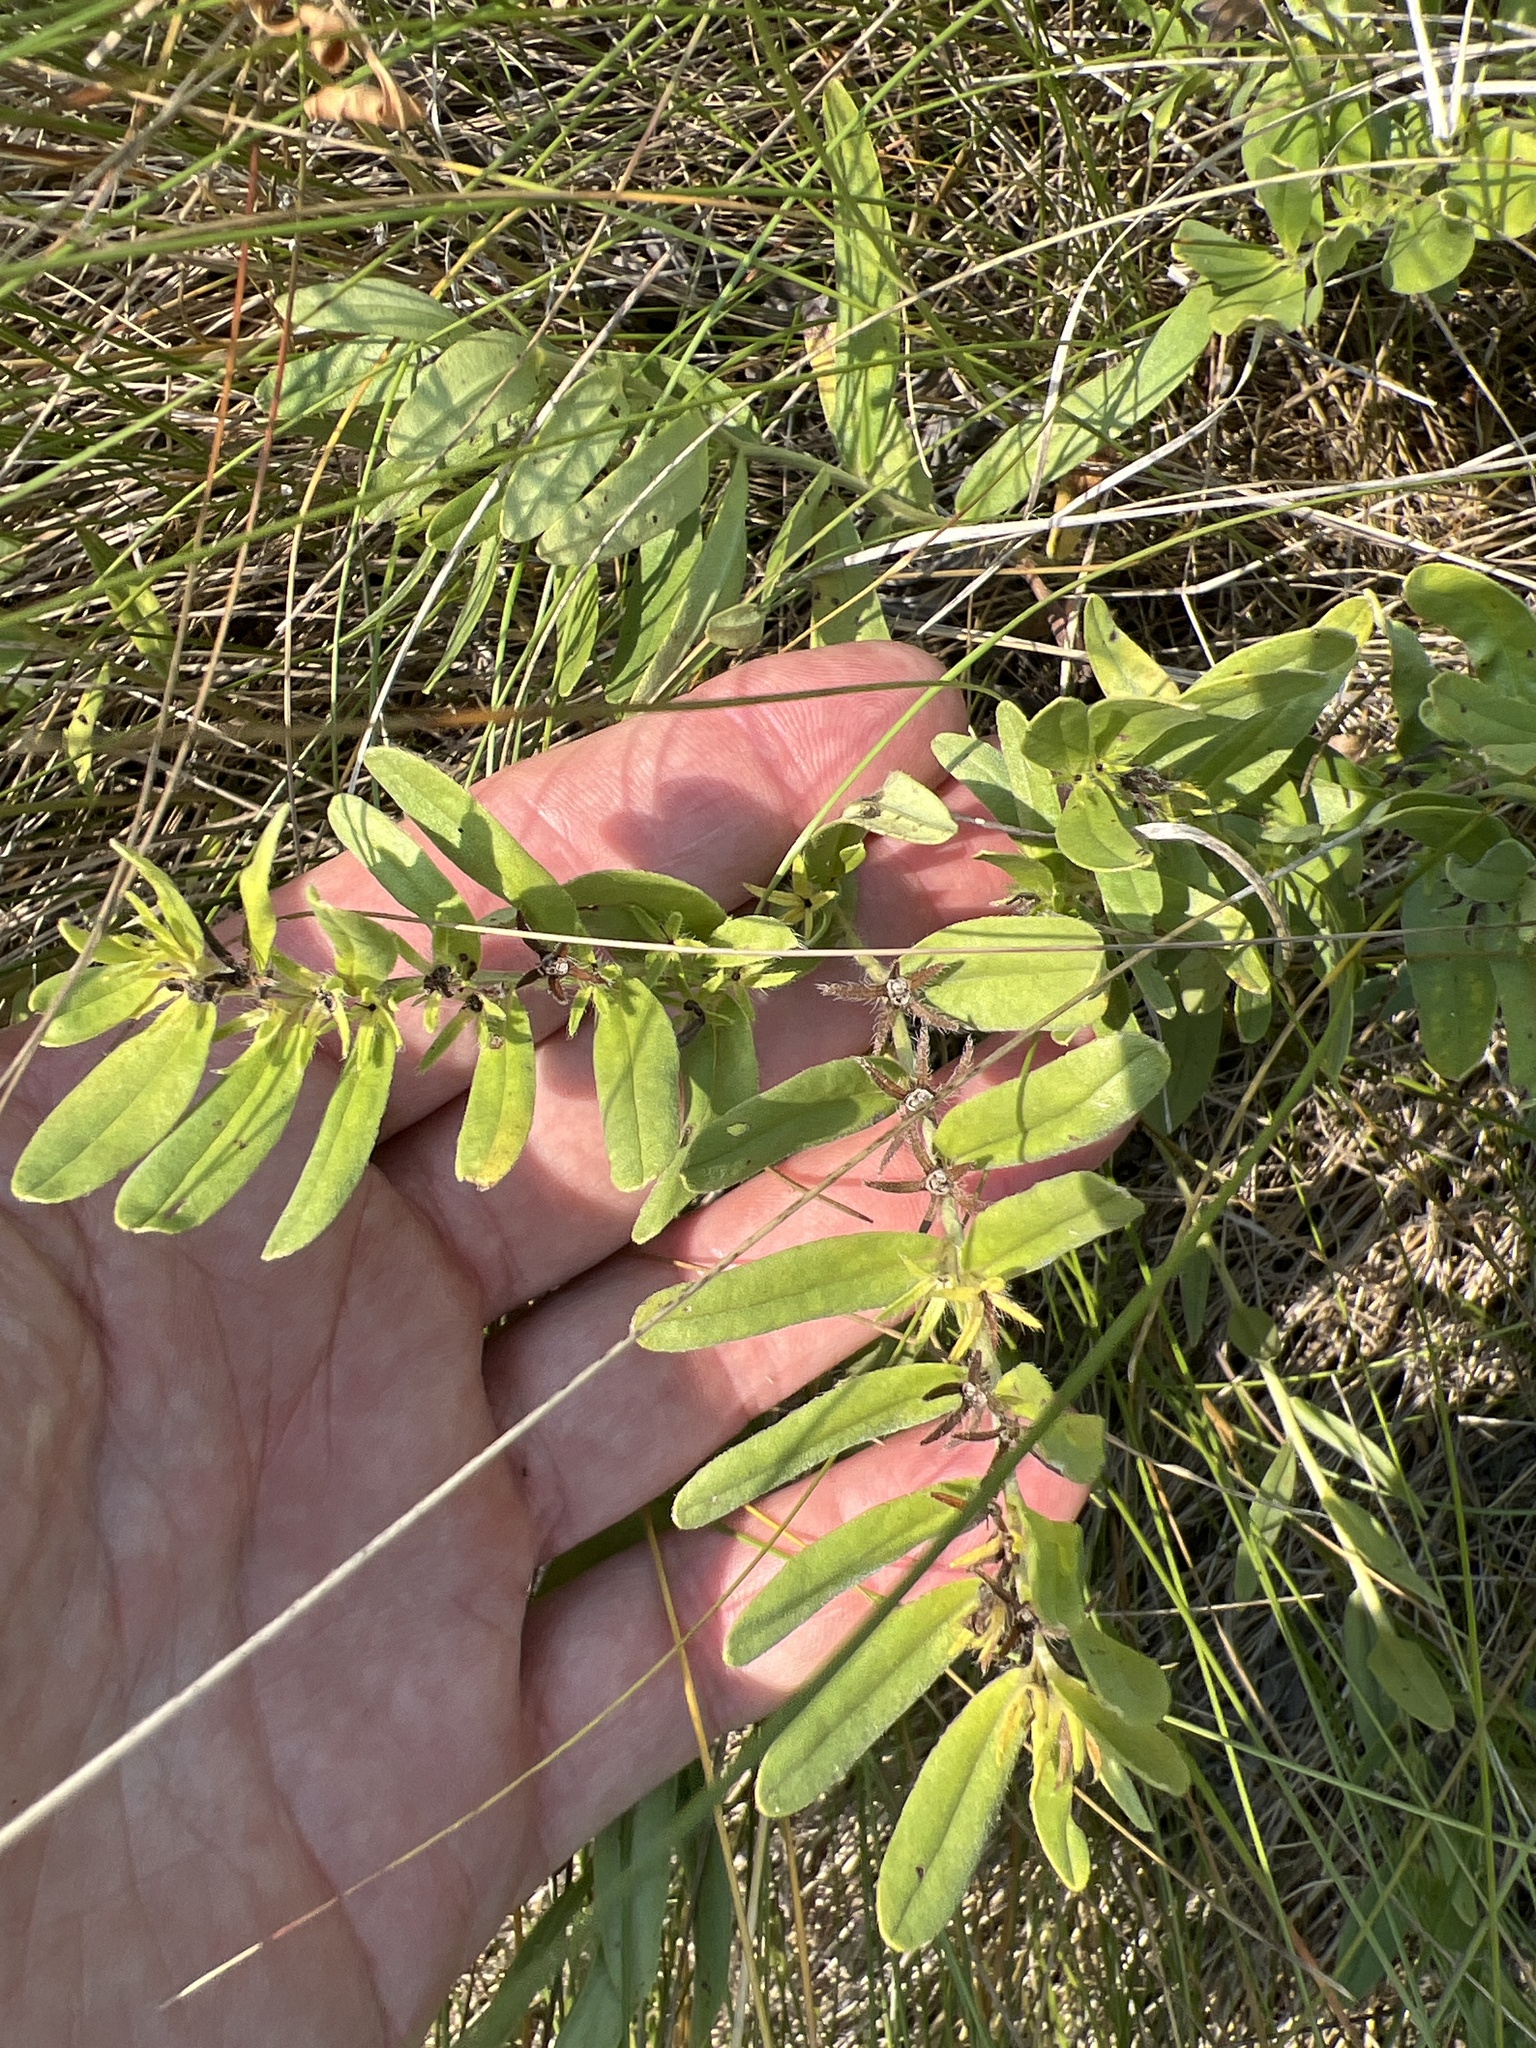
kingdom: Plantae
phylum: Tracheophyta
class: Magnoliopsida
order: Boraginales
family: Boraginaceae
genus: Lithospermum
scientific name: Lithospermum canescens
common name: Hoary puccoon
